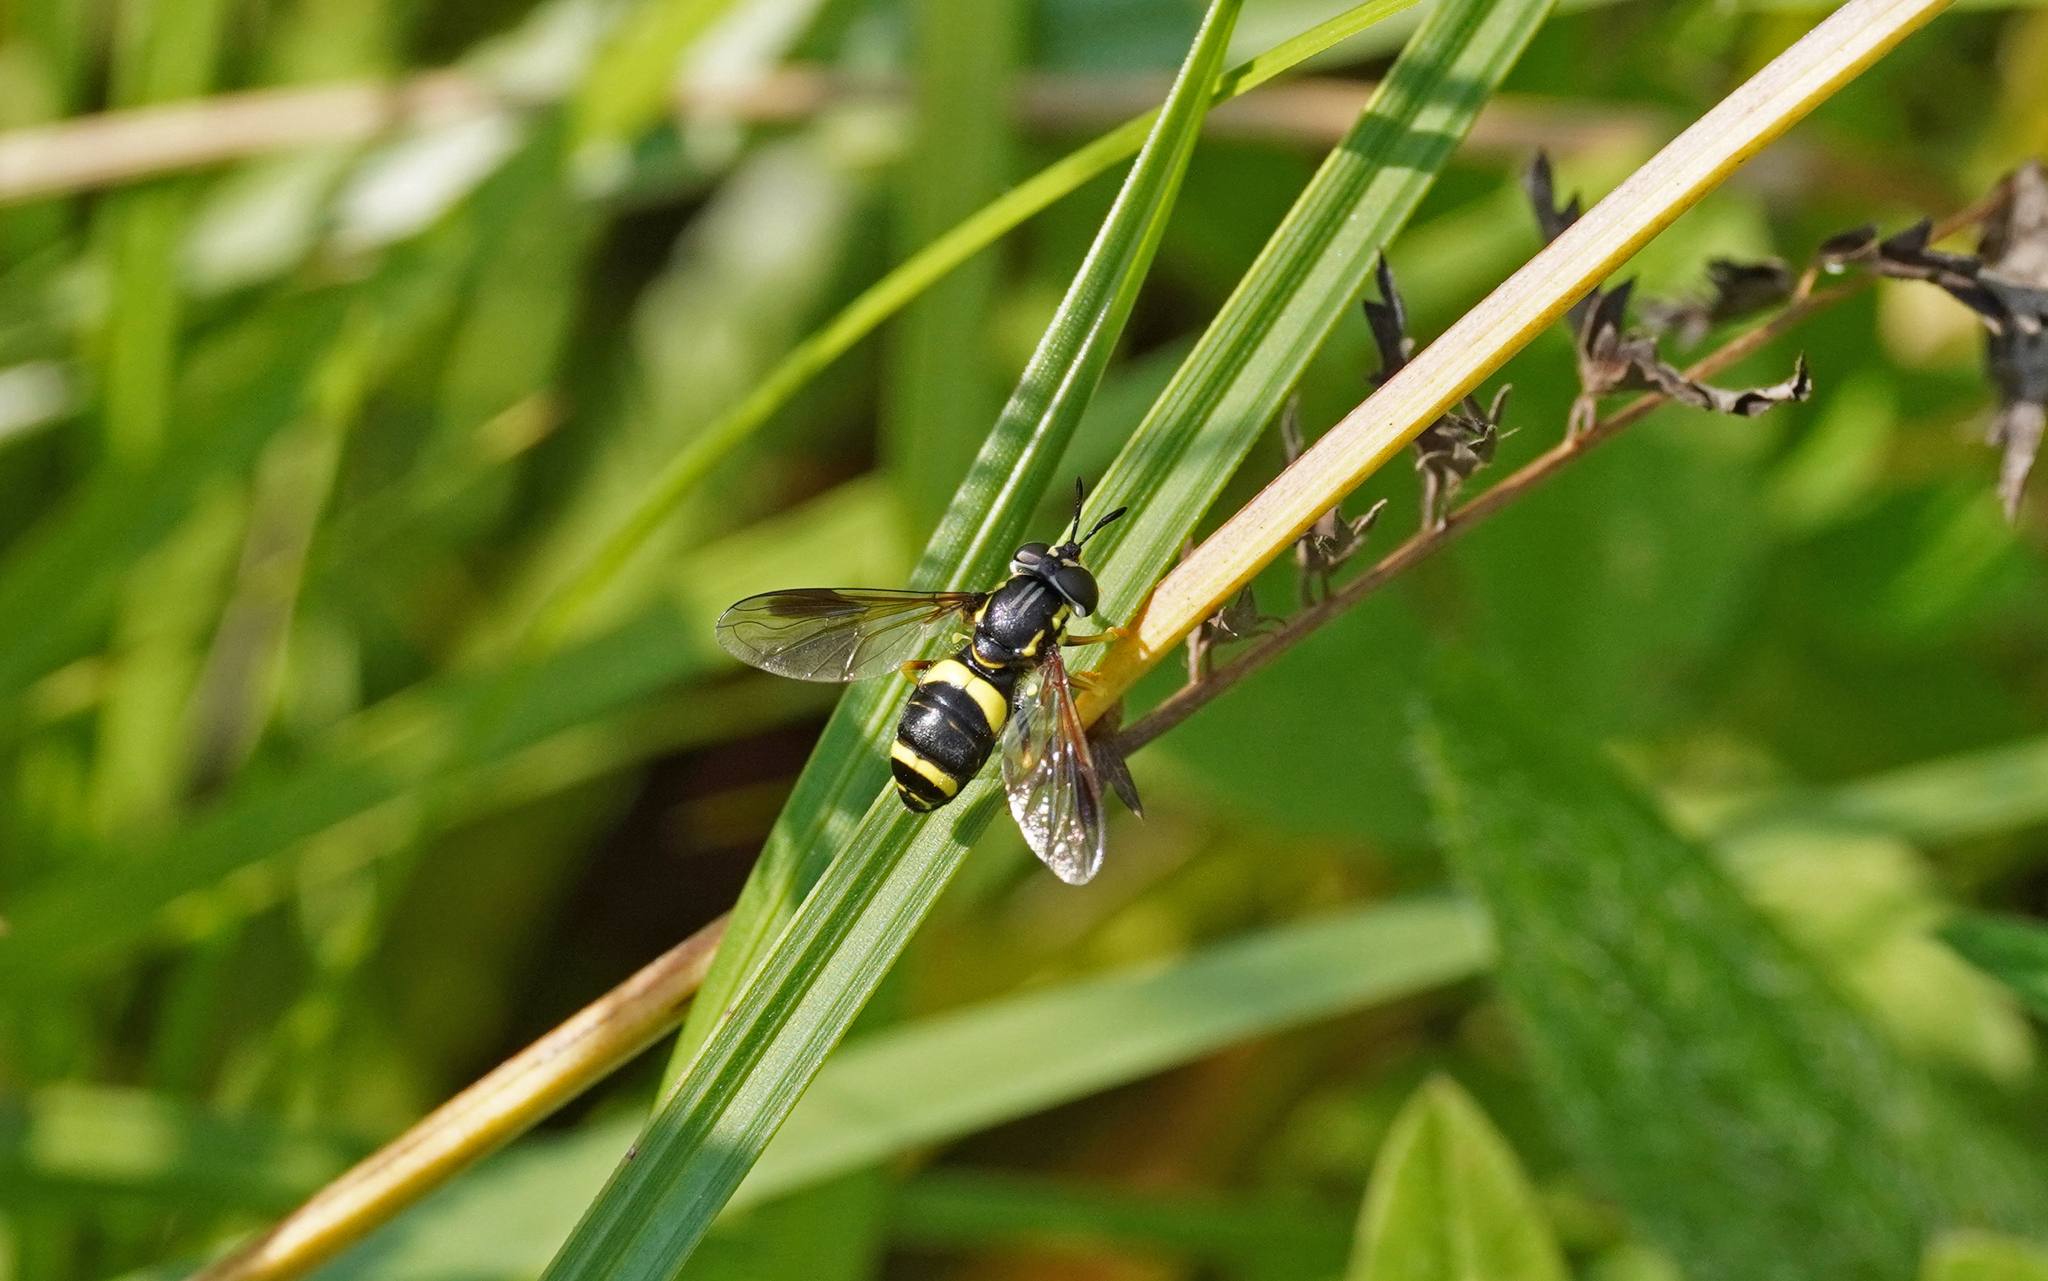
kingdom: Animalia
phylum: Arthropoda
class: Insecta
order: Diptera
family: Syrphidae
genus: Chrysotoxum
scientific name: Chrysotoxum bicincta
